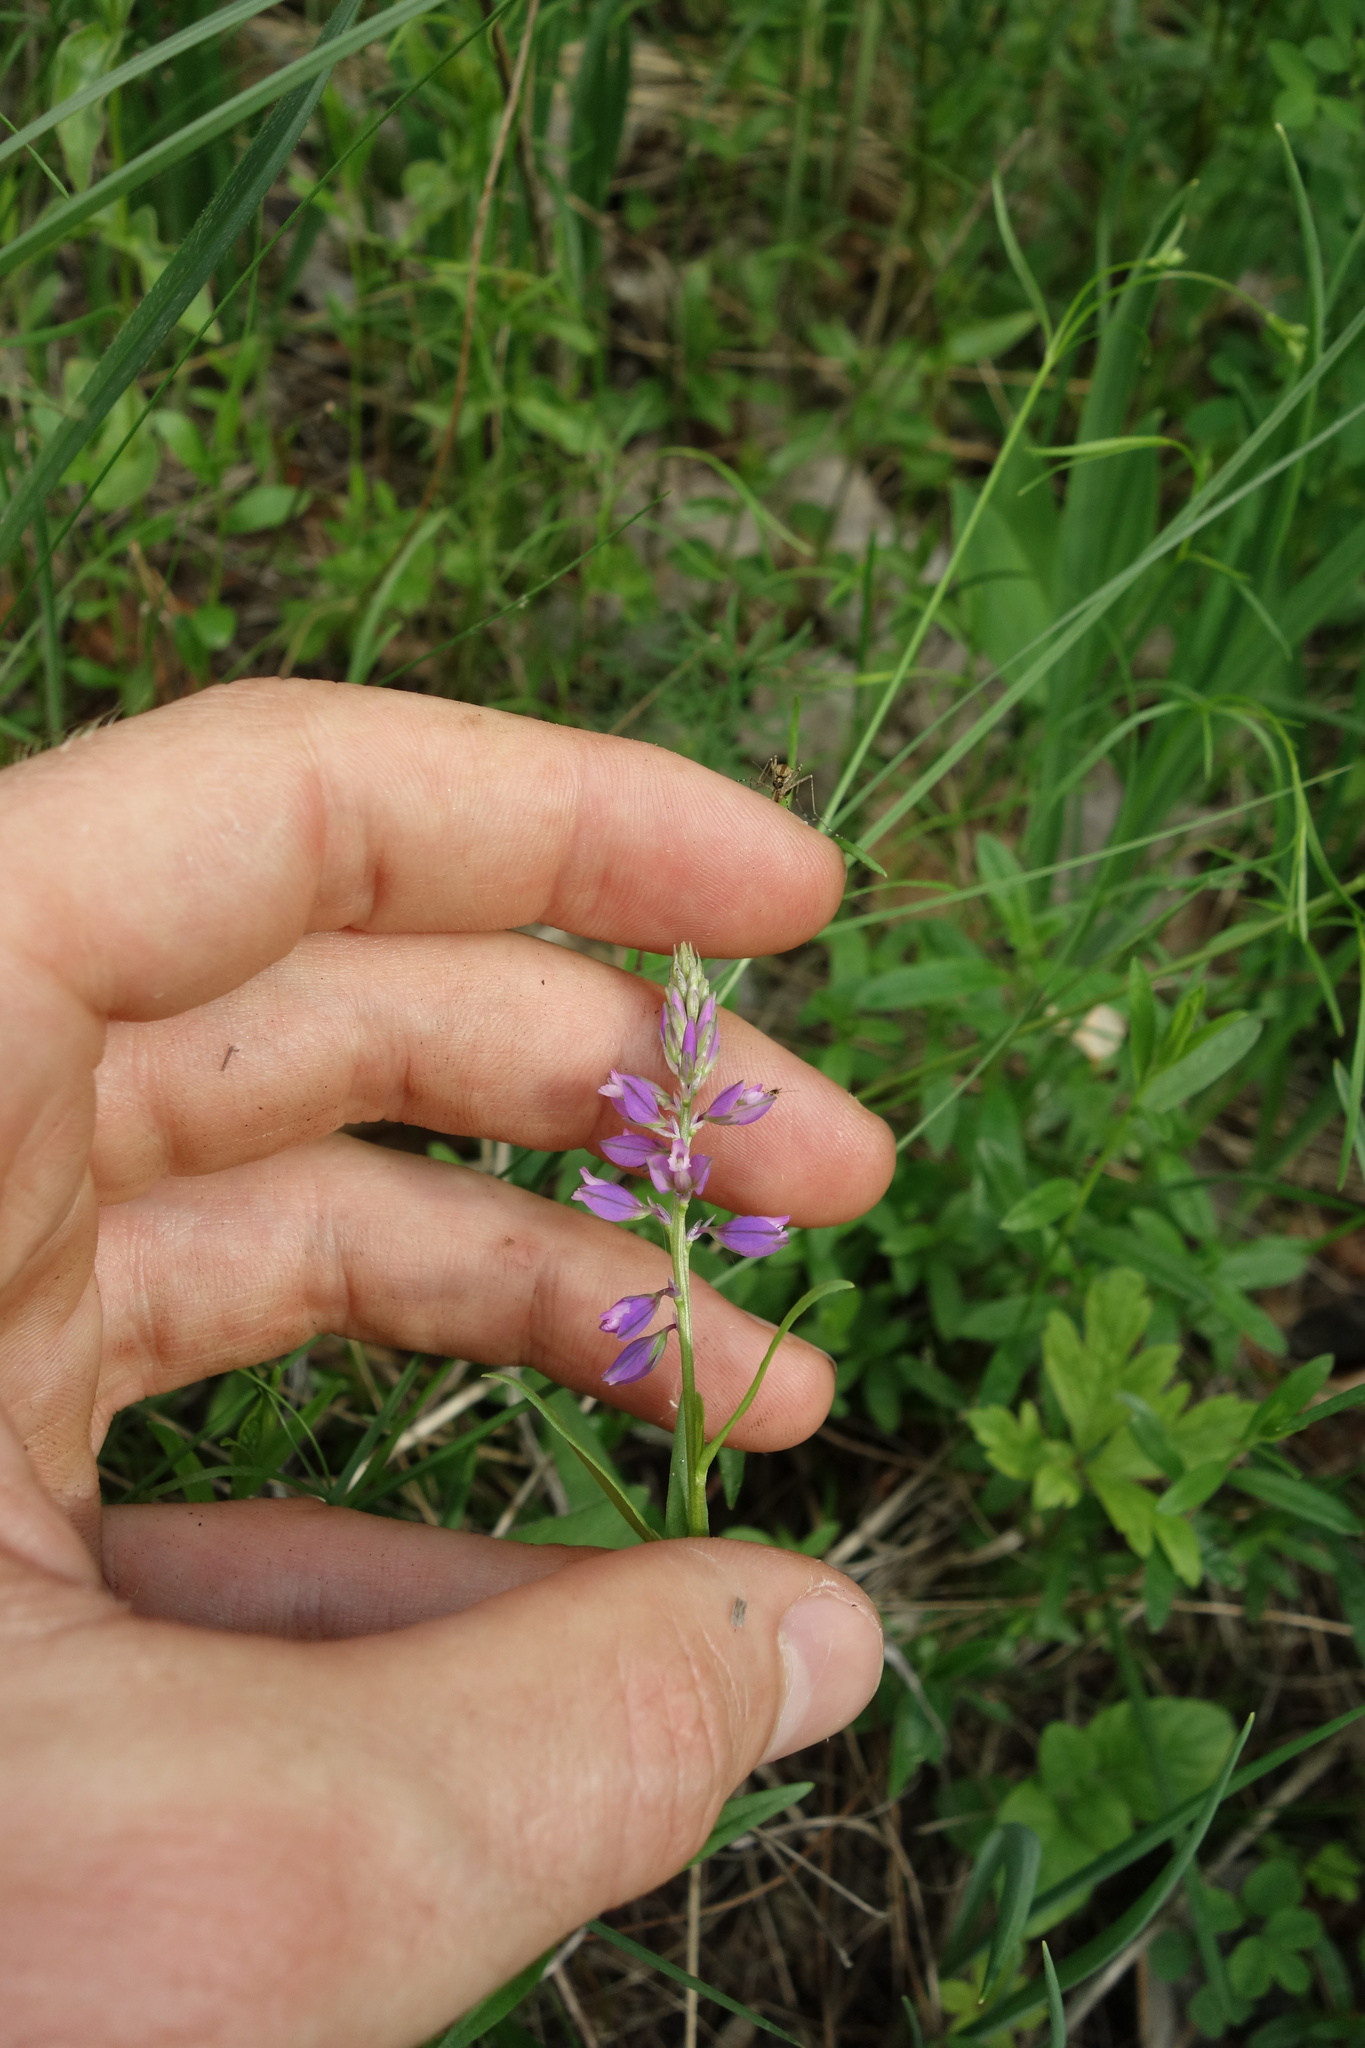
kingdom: Plantae
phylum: Tracheophyta
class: Magnoliopsida
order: Fabales
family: Polygalaceae
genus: Polygala
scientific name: Polygala comosa
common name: Tufted milkwort
